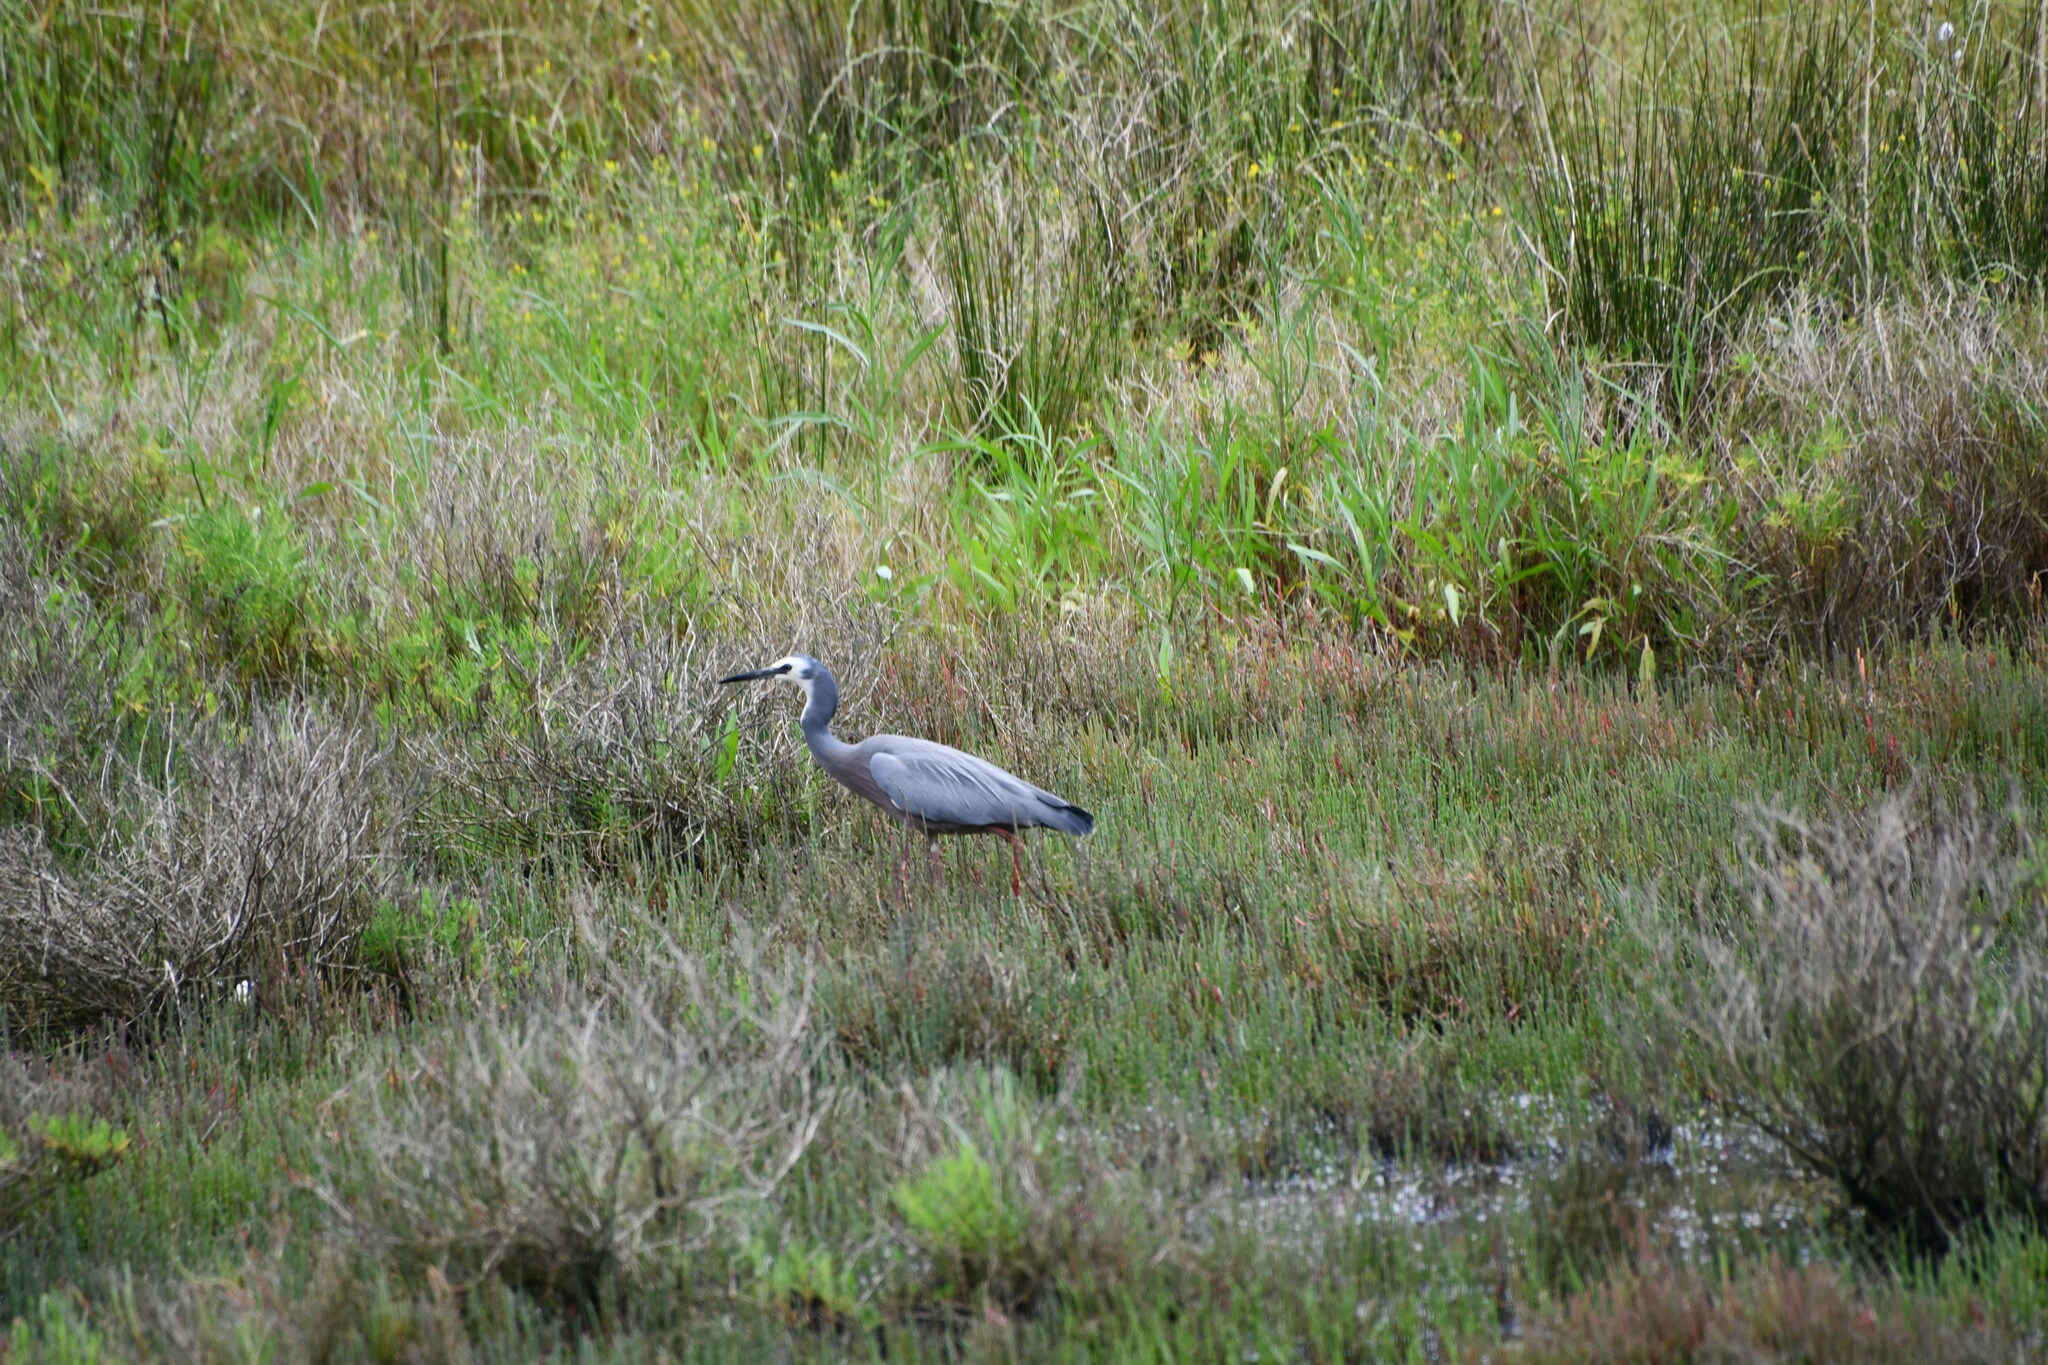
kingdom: Animalia
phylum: Chordata
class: Aves
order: Pelecaniformes
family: Ardeidae
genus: Egretta
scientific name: Egretta novaehollandiae
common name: White-faced heron
